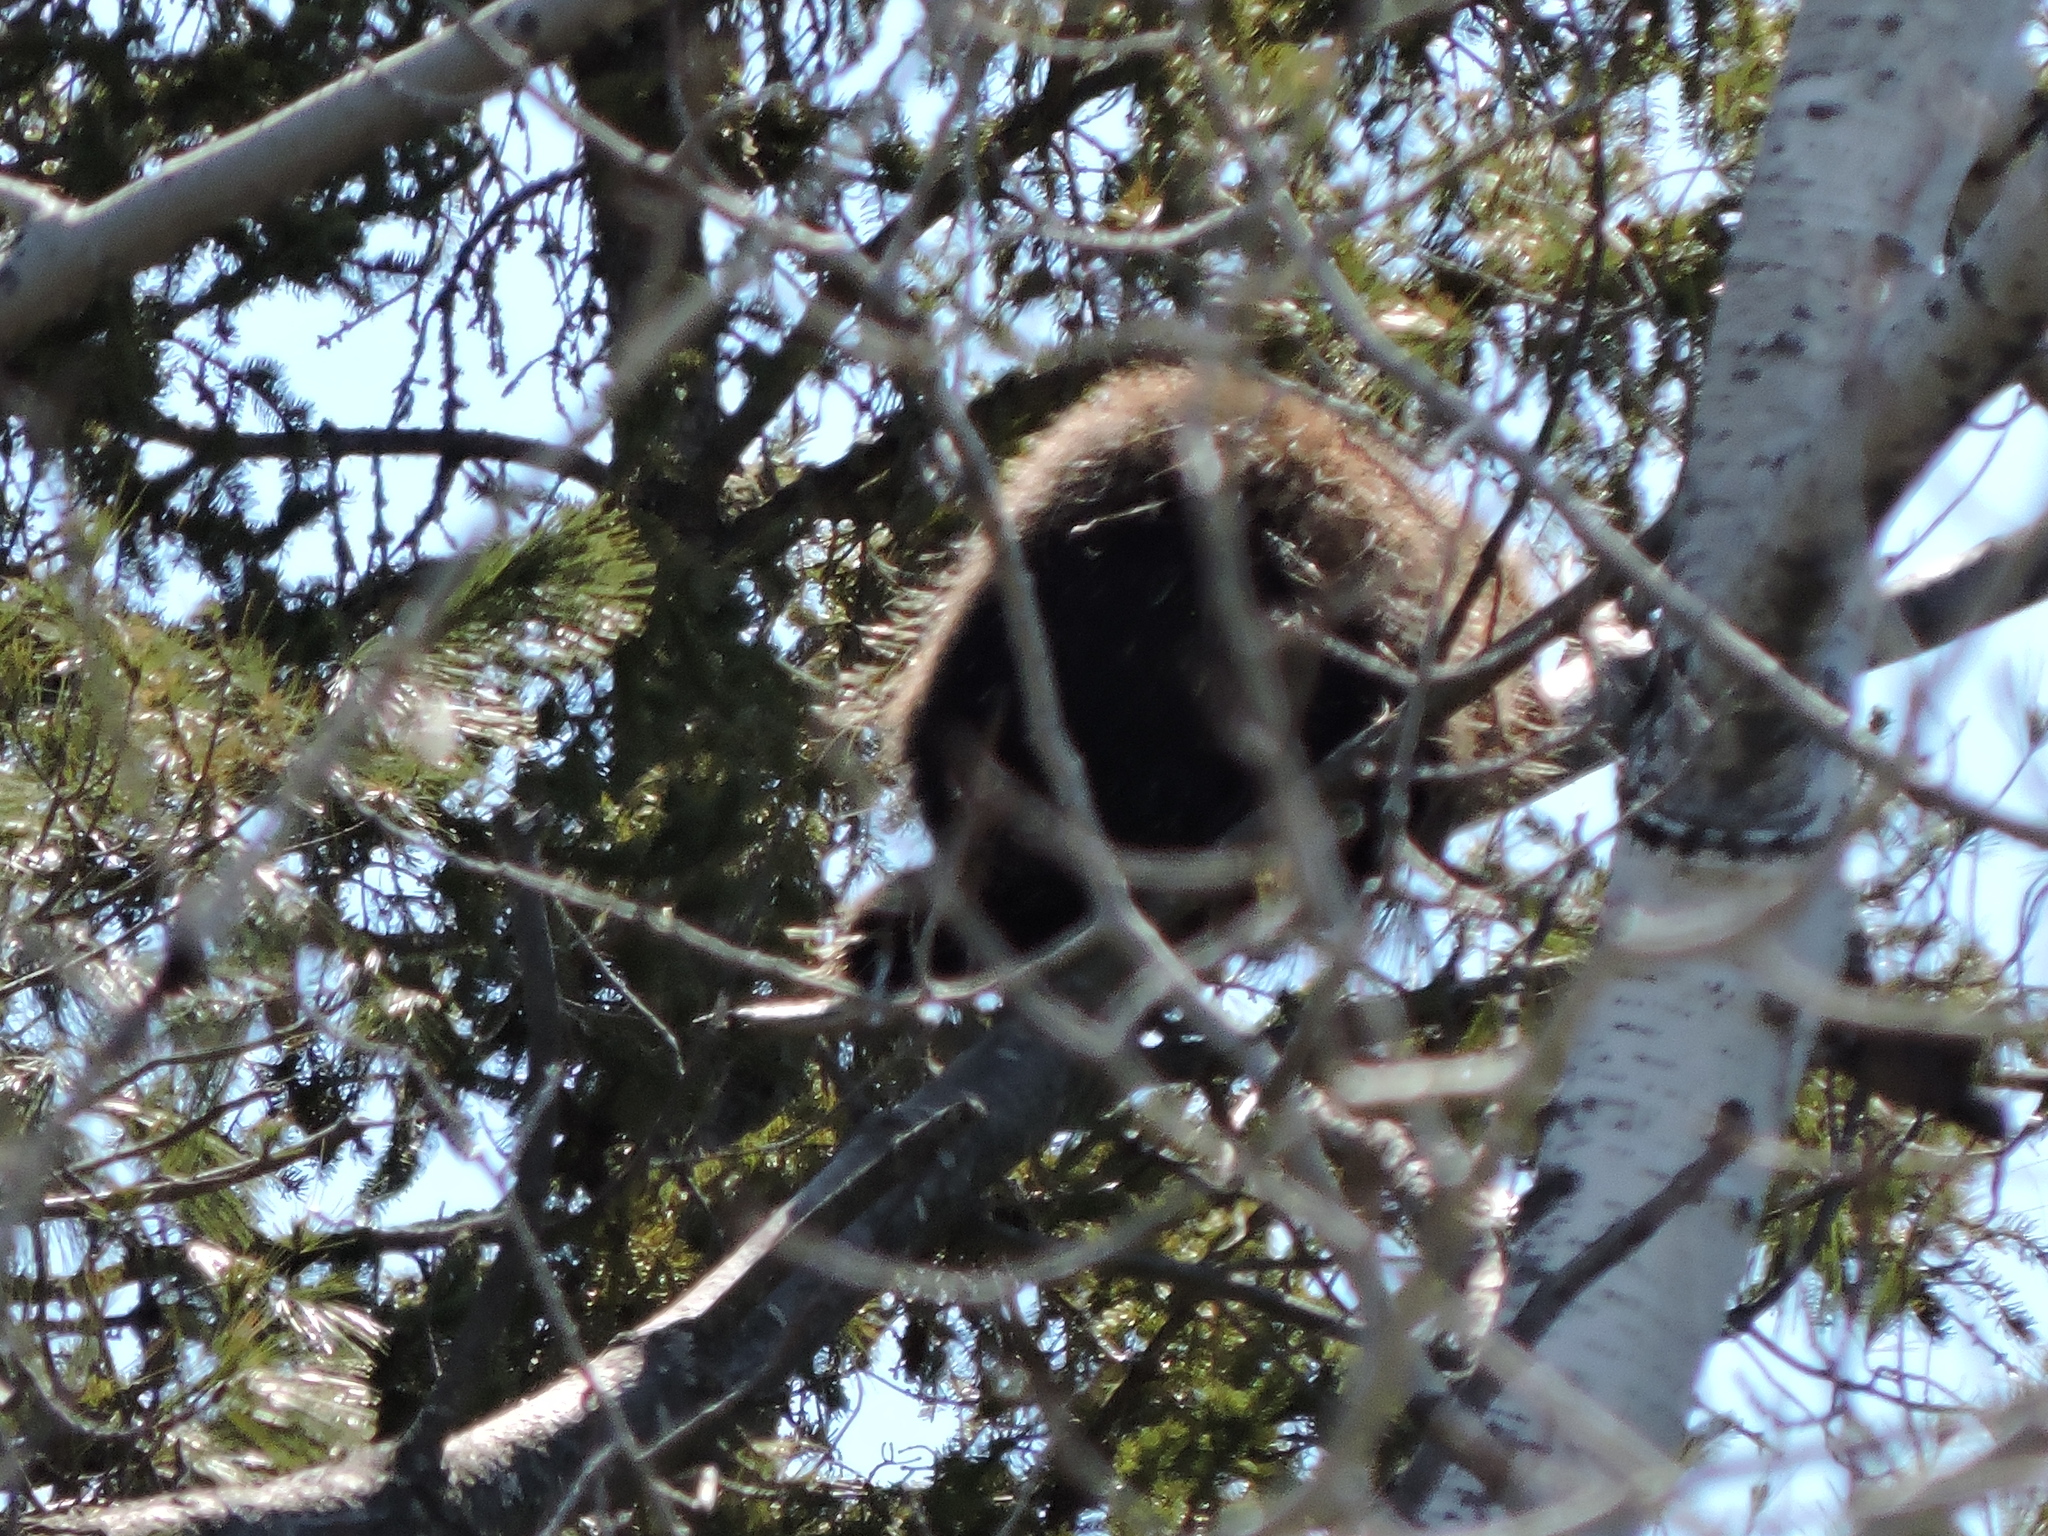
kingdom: Animalia
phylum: Chordata
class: Mammalia
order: Rodentia
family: Erethizontidae
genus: Erethizon
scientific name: Erethizon dorsatus
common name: North american porcupine
